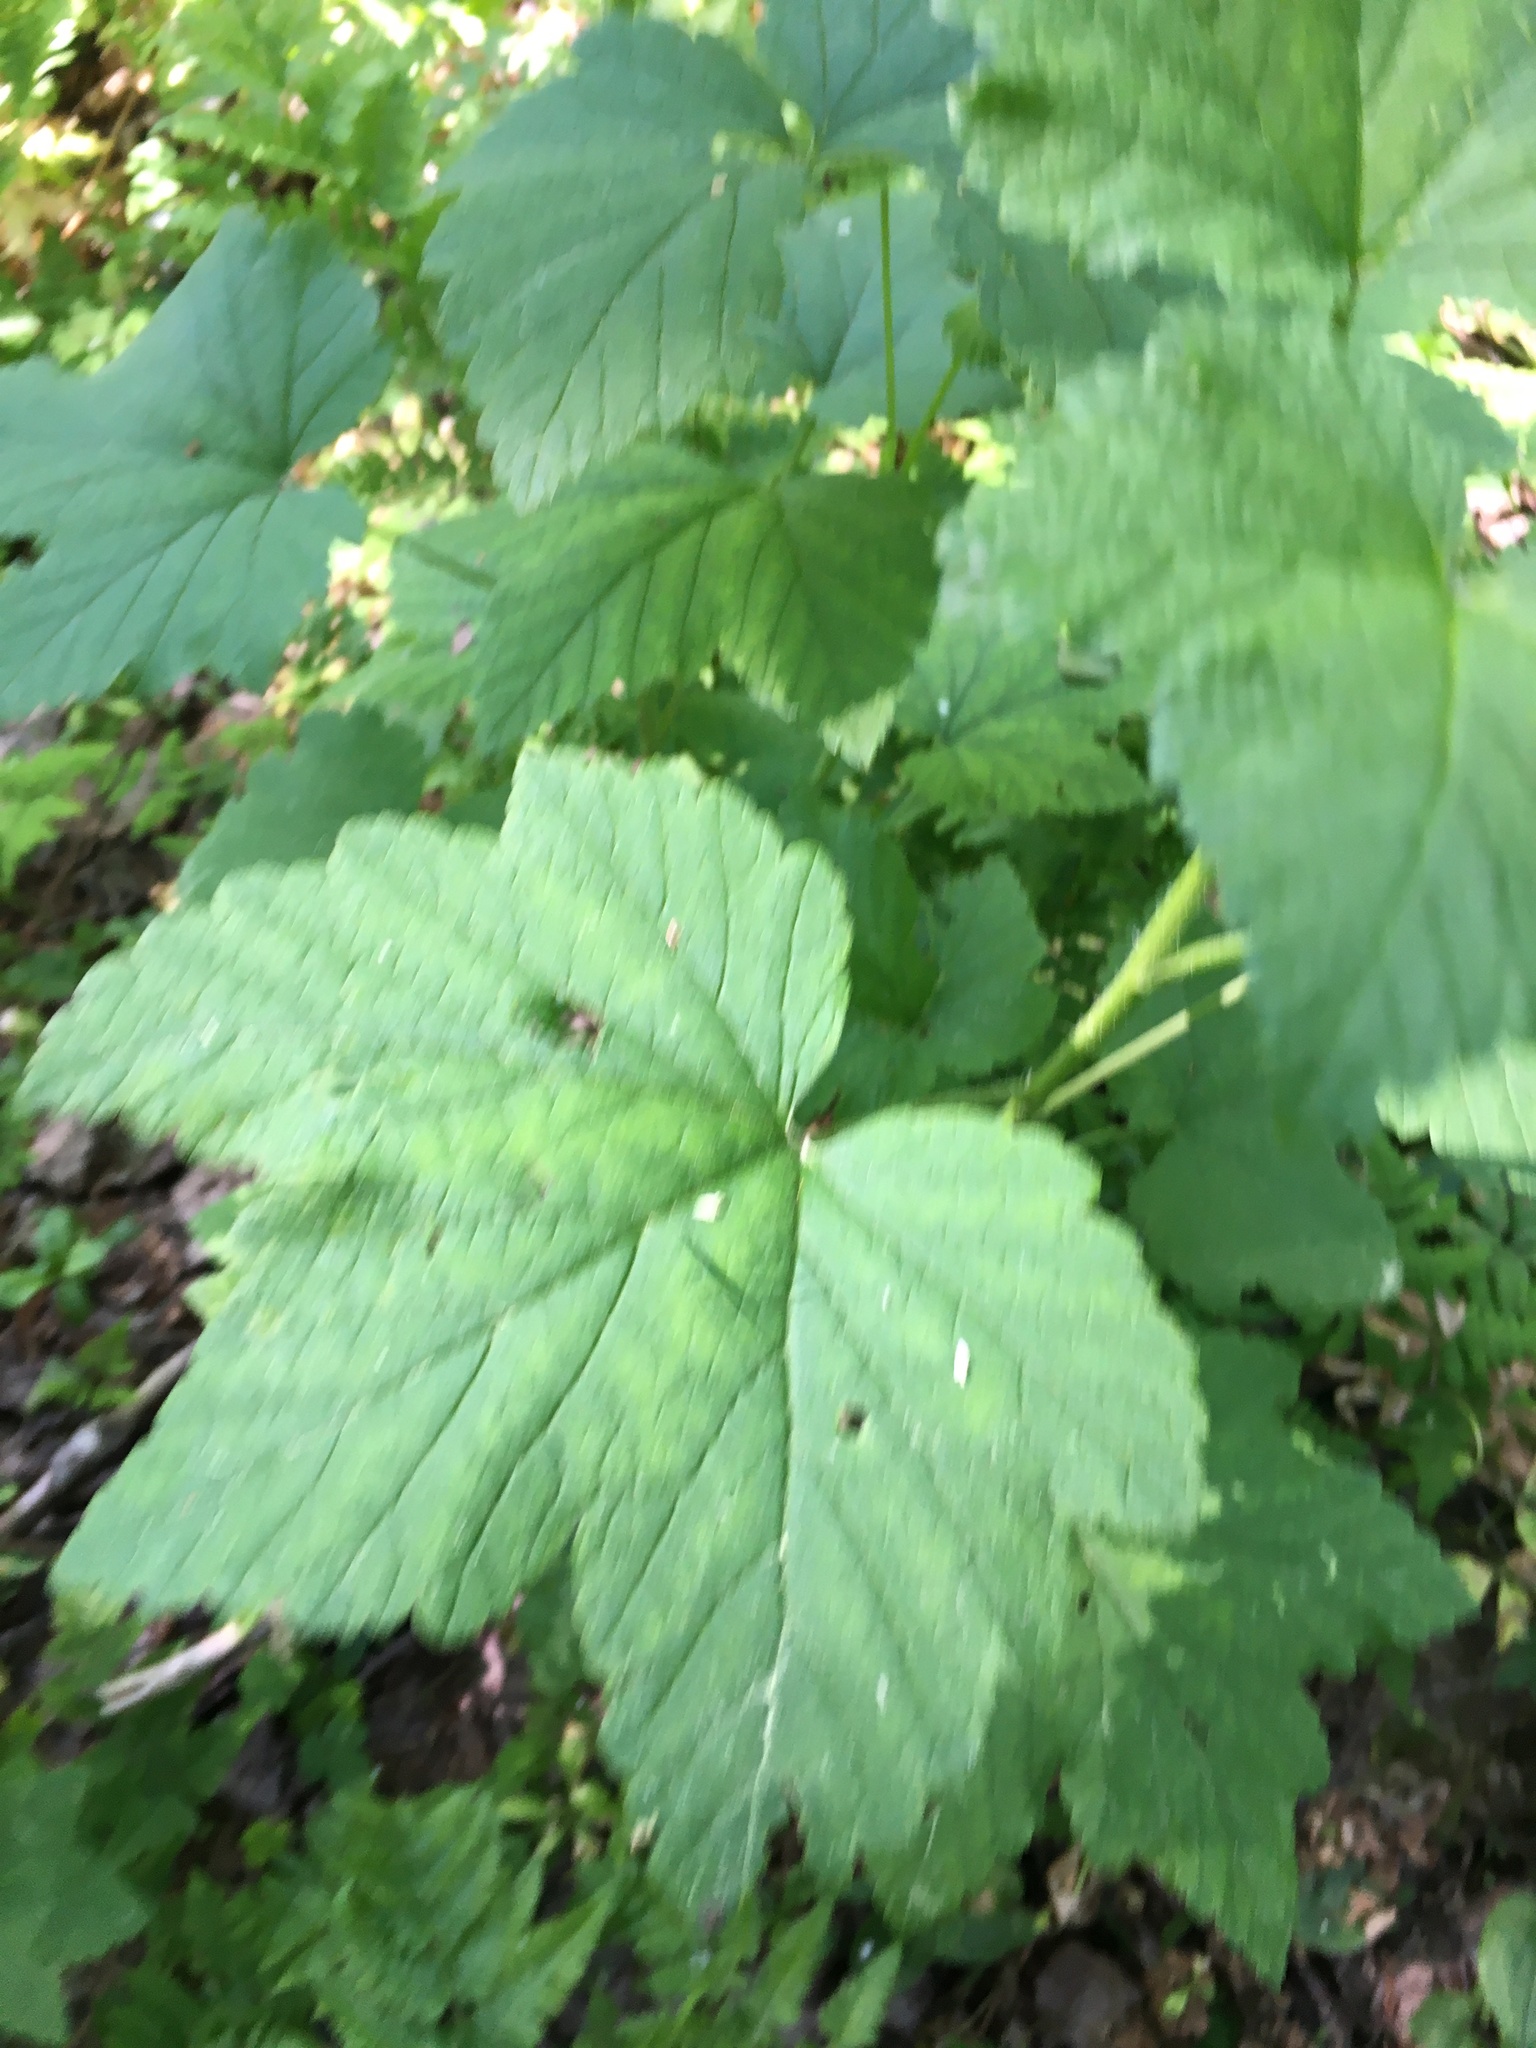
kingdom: Plantae
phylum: Tracheophyta
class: Magnoliopsida
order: Saxifragales
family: Grossulariaceae
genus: Ribes
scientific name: Ribes nigrum
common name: Black currant
